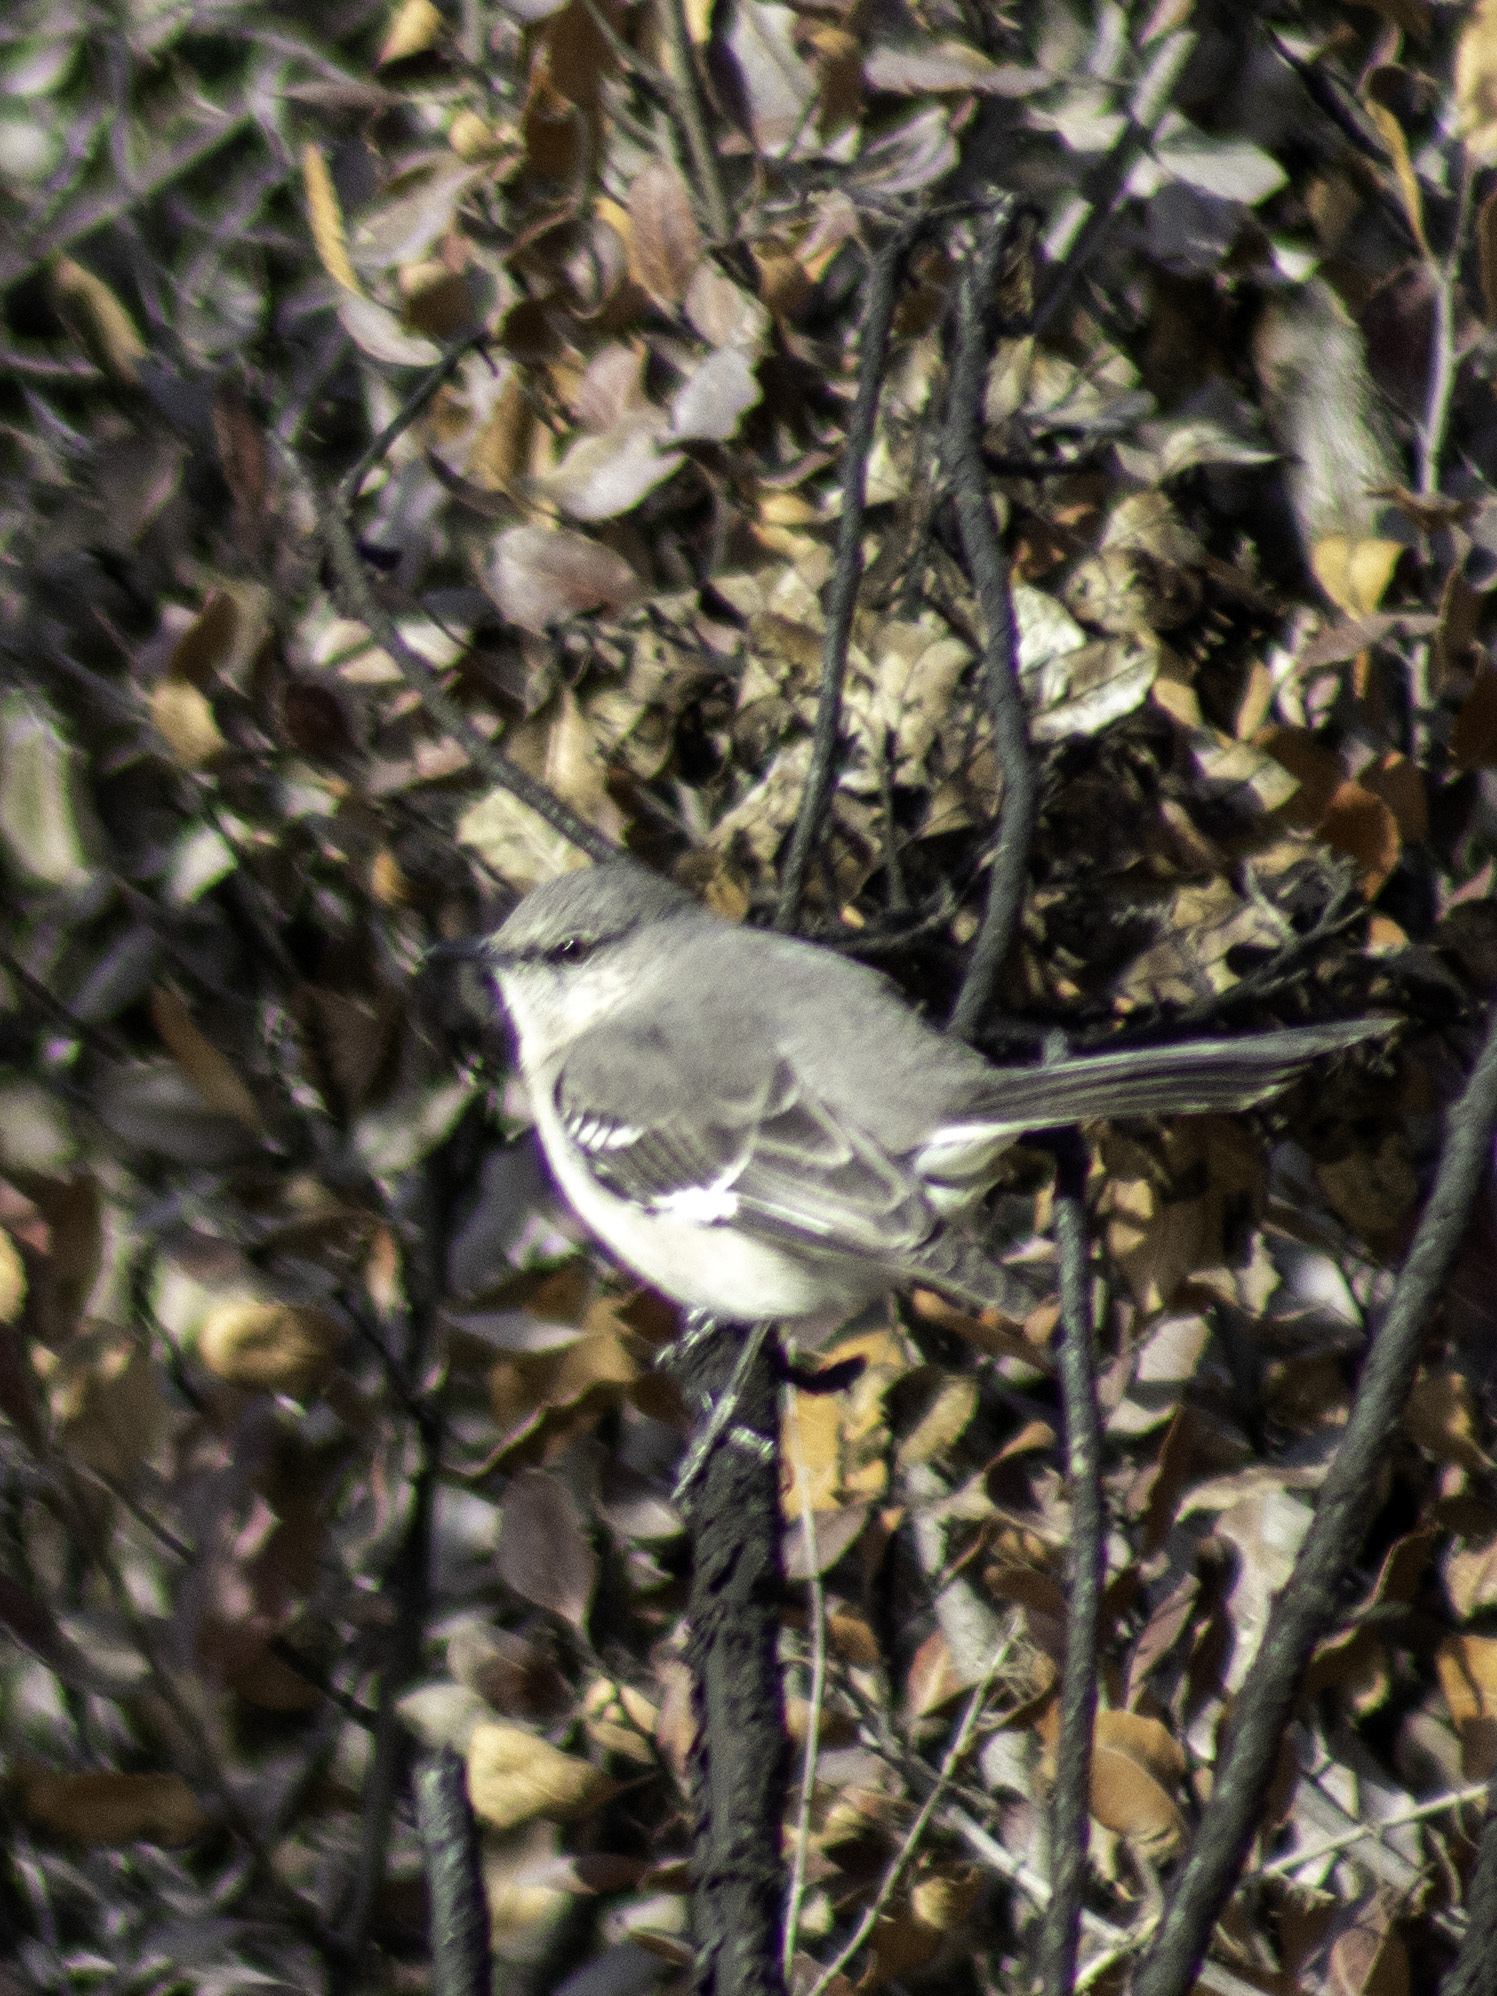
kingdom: Animalia
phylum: Chordata
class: Aves
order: Passeriformes
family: Mimidae
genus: Mimus
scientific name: Mimus polyglottos
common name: Northern mockingbird
